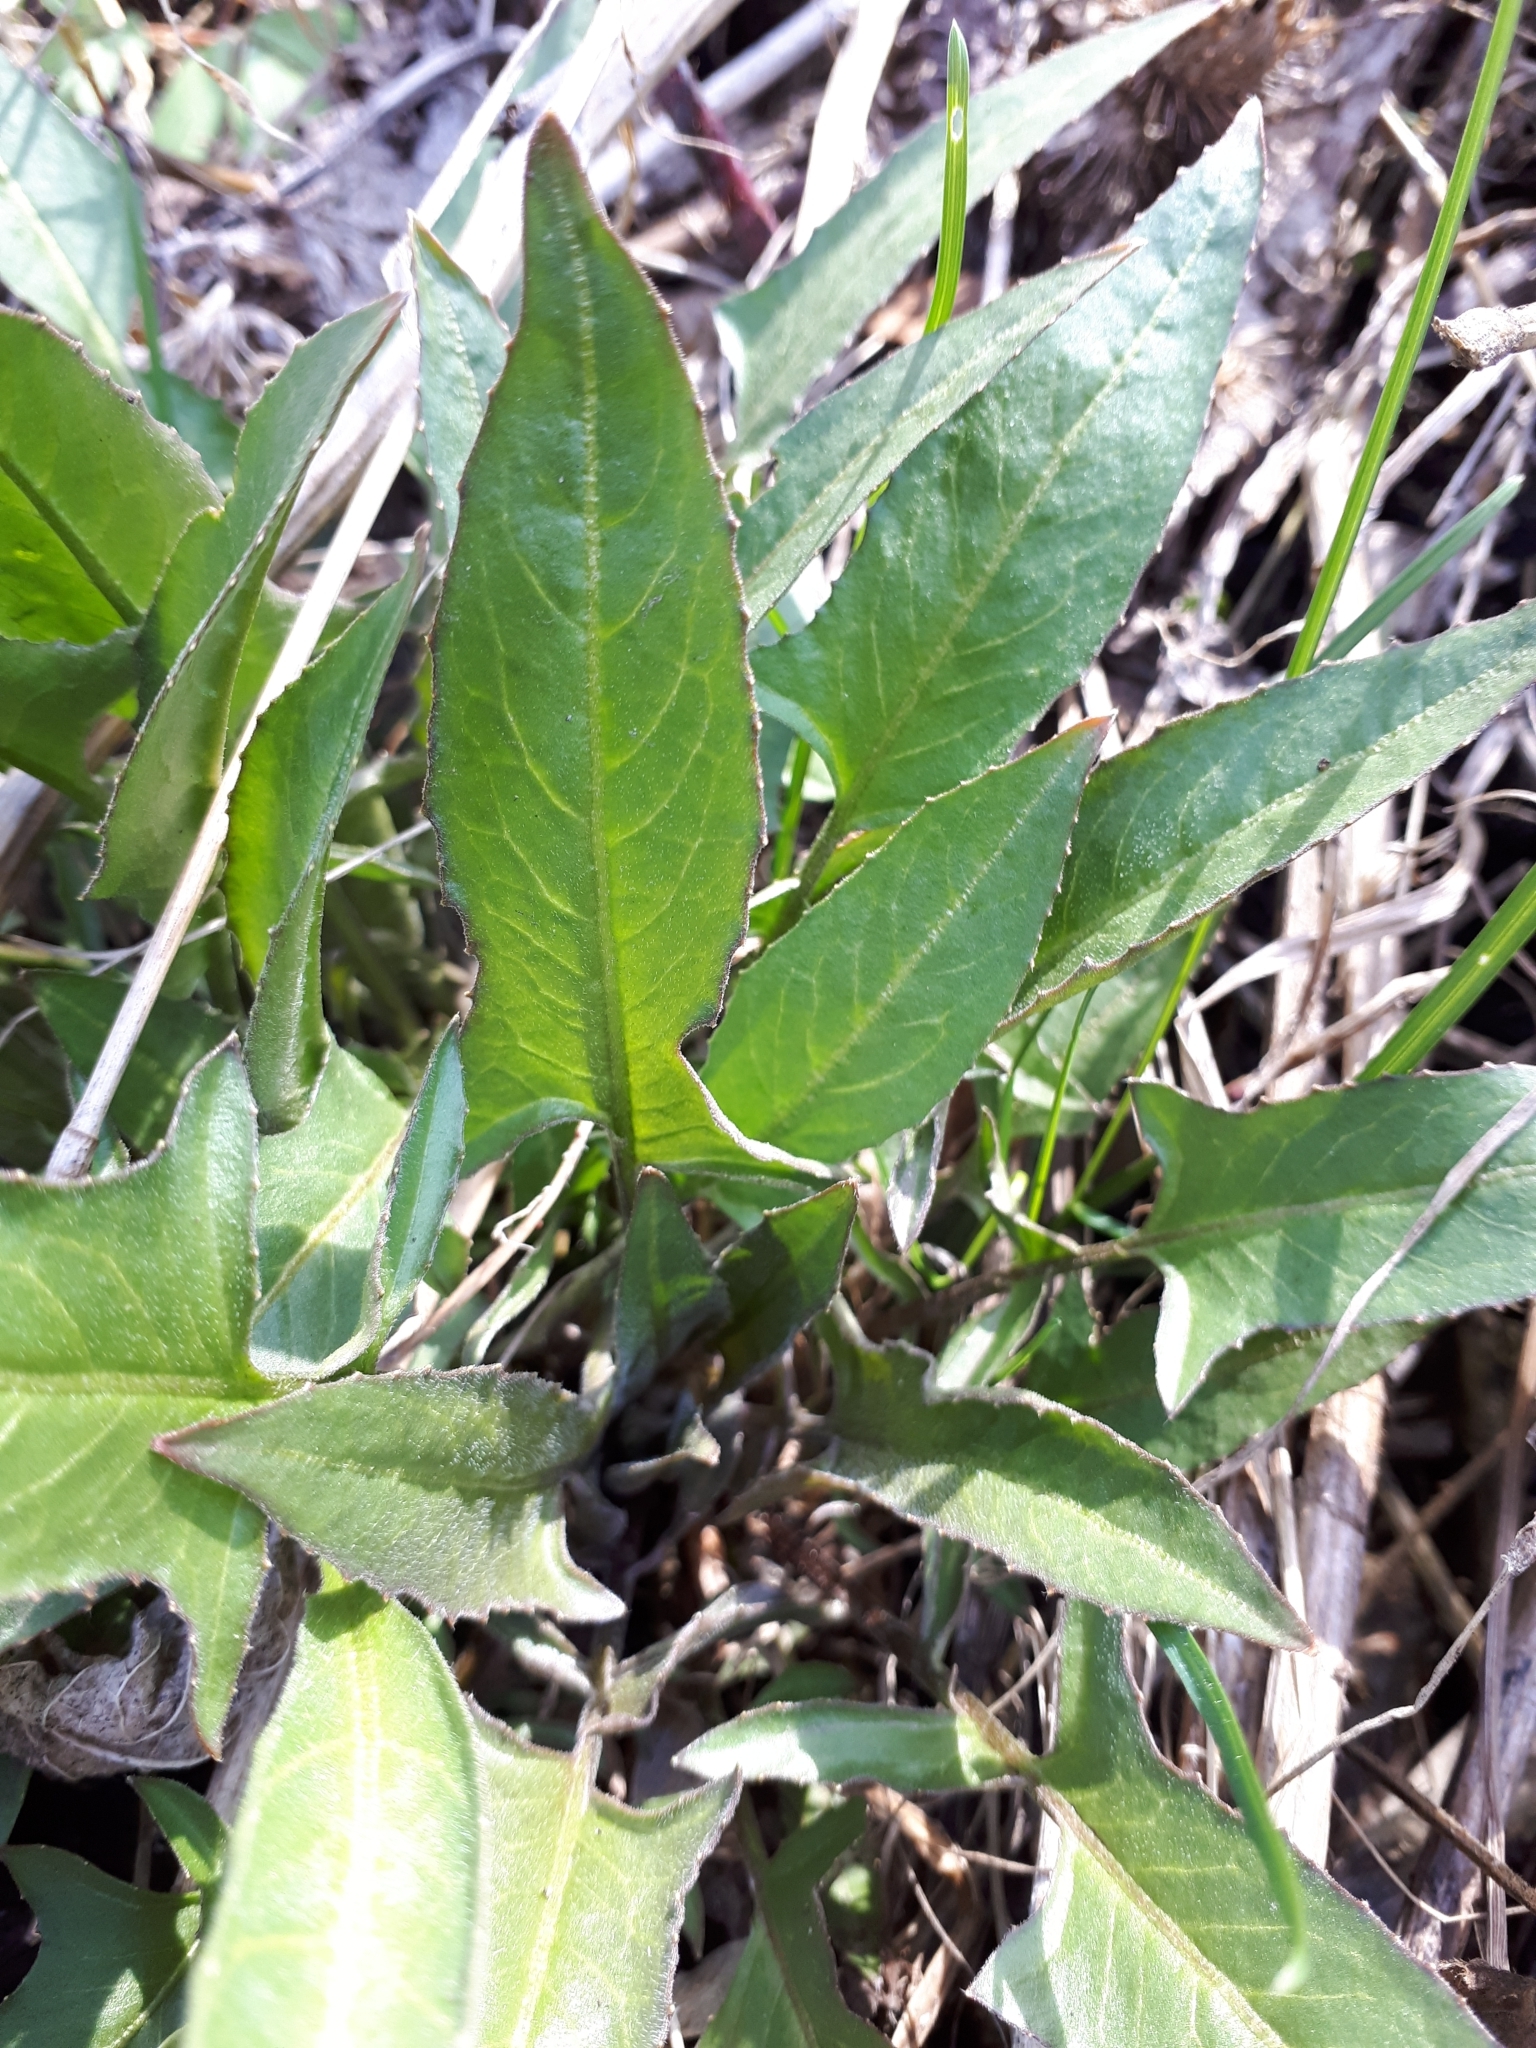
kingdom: Plantae
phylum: Tracheophyta
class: Magnoliopsida
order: Brassicales
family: Brassicaceae
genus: Bunias
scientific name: Bunias orientalis
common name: Warty-cabbage
